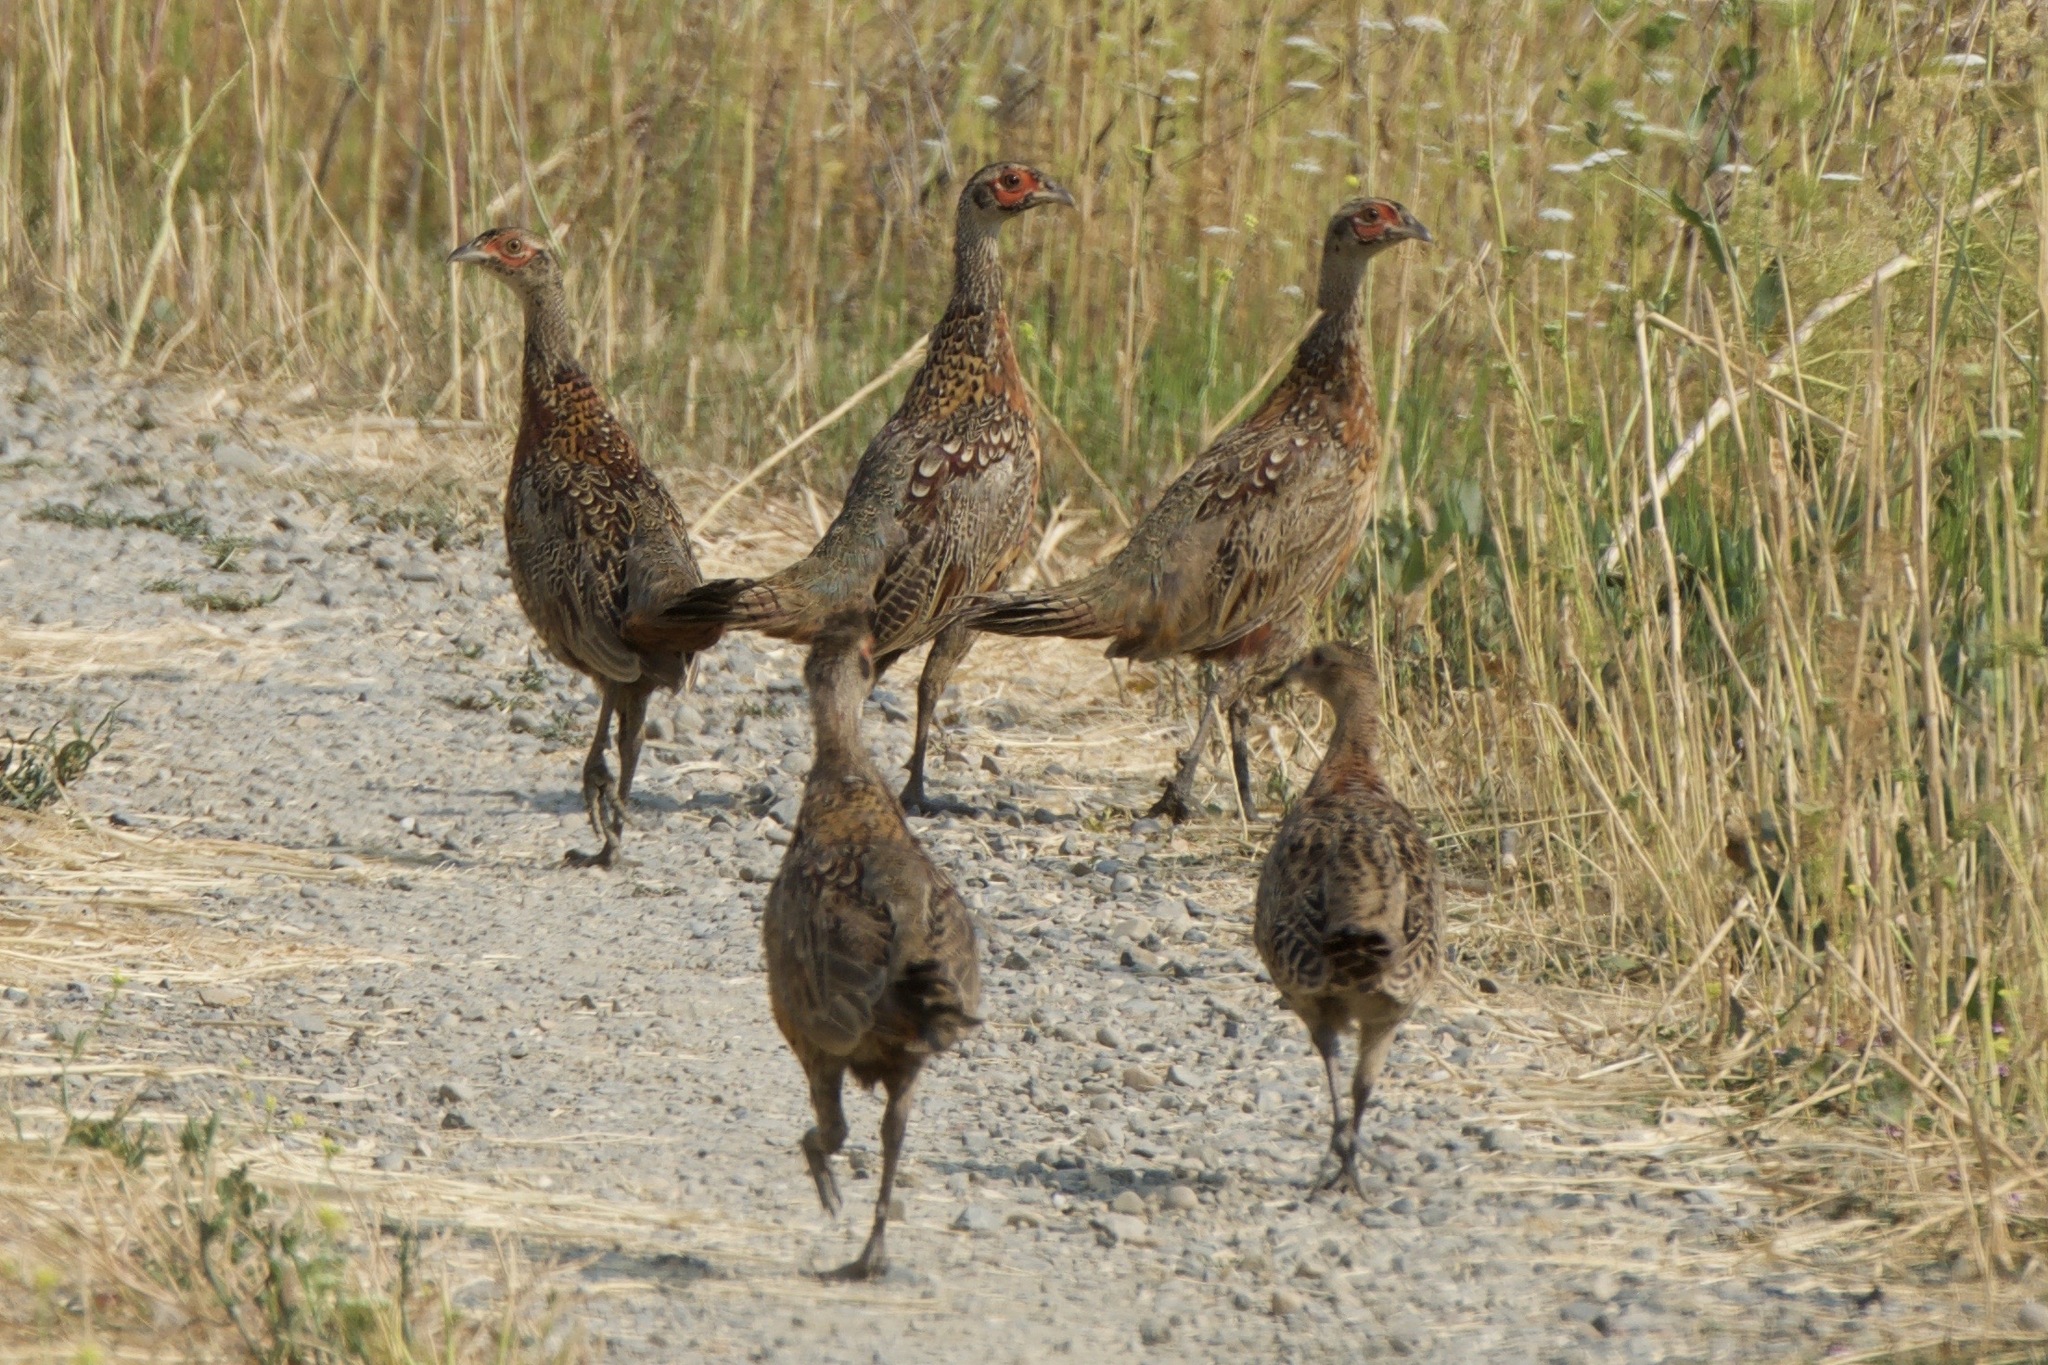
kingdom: Animalia
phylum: Chordata
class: Aves
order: Galliformes
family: Phasianidae
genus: Phasianus
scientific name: Phasianus colchicus
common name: Common pheasant
